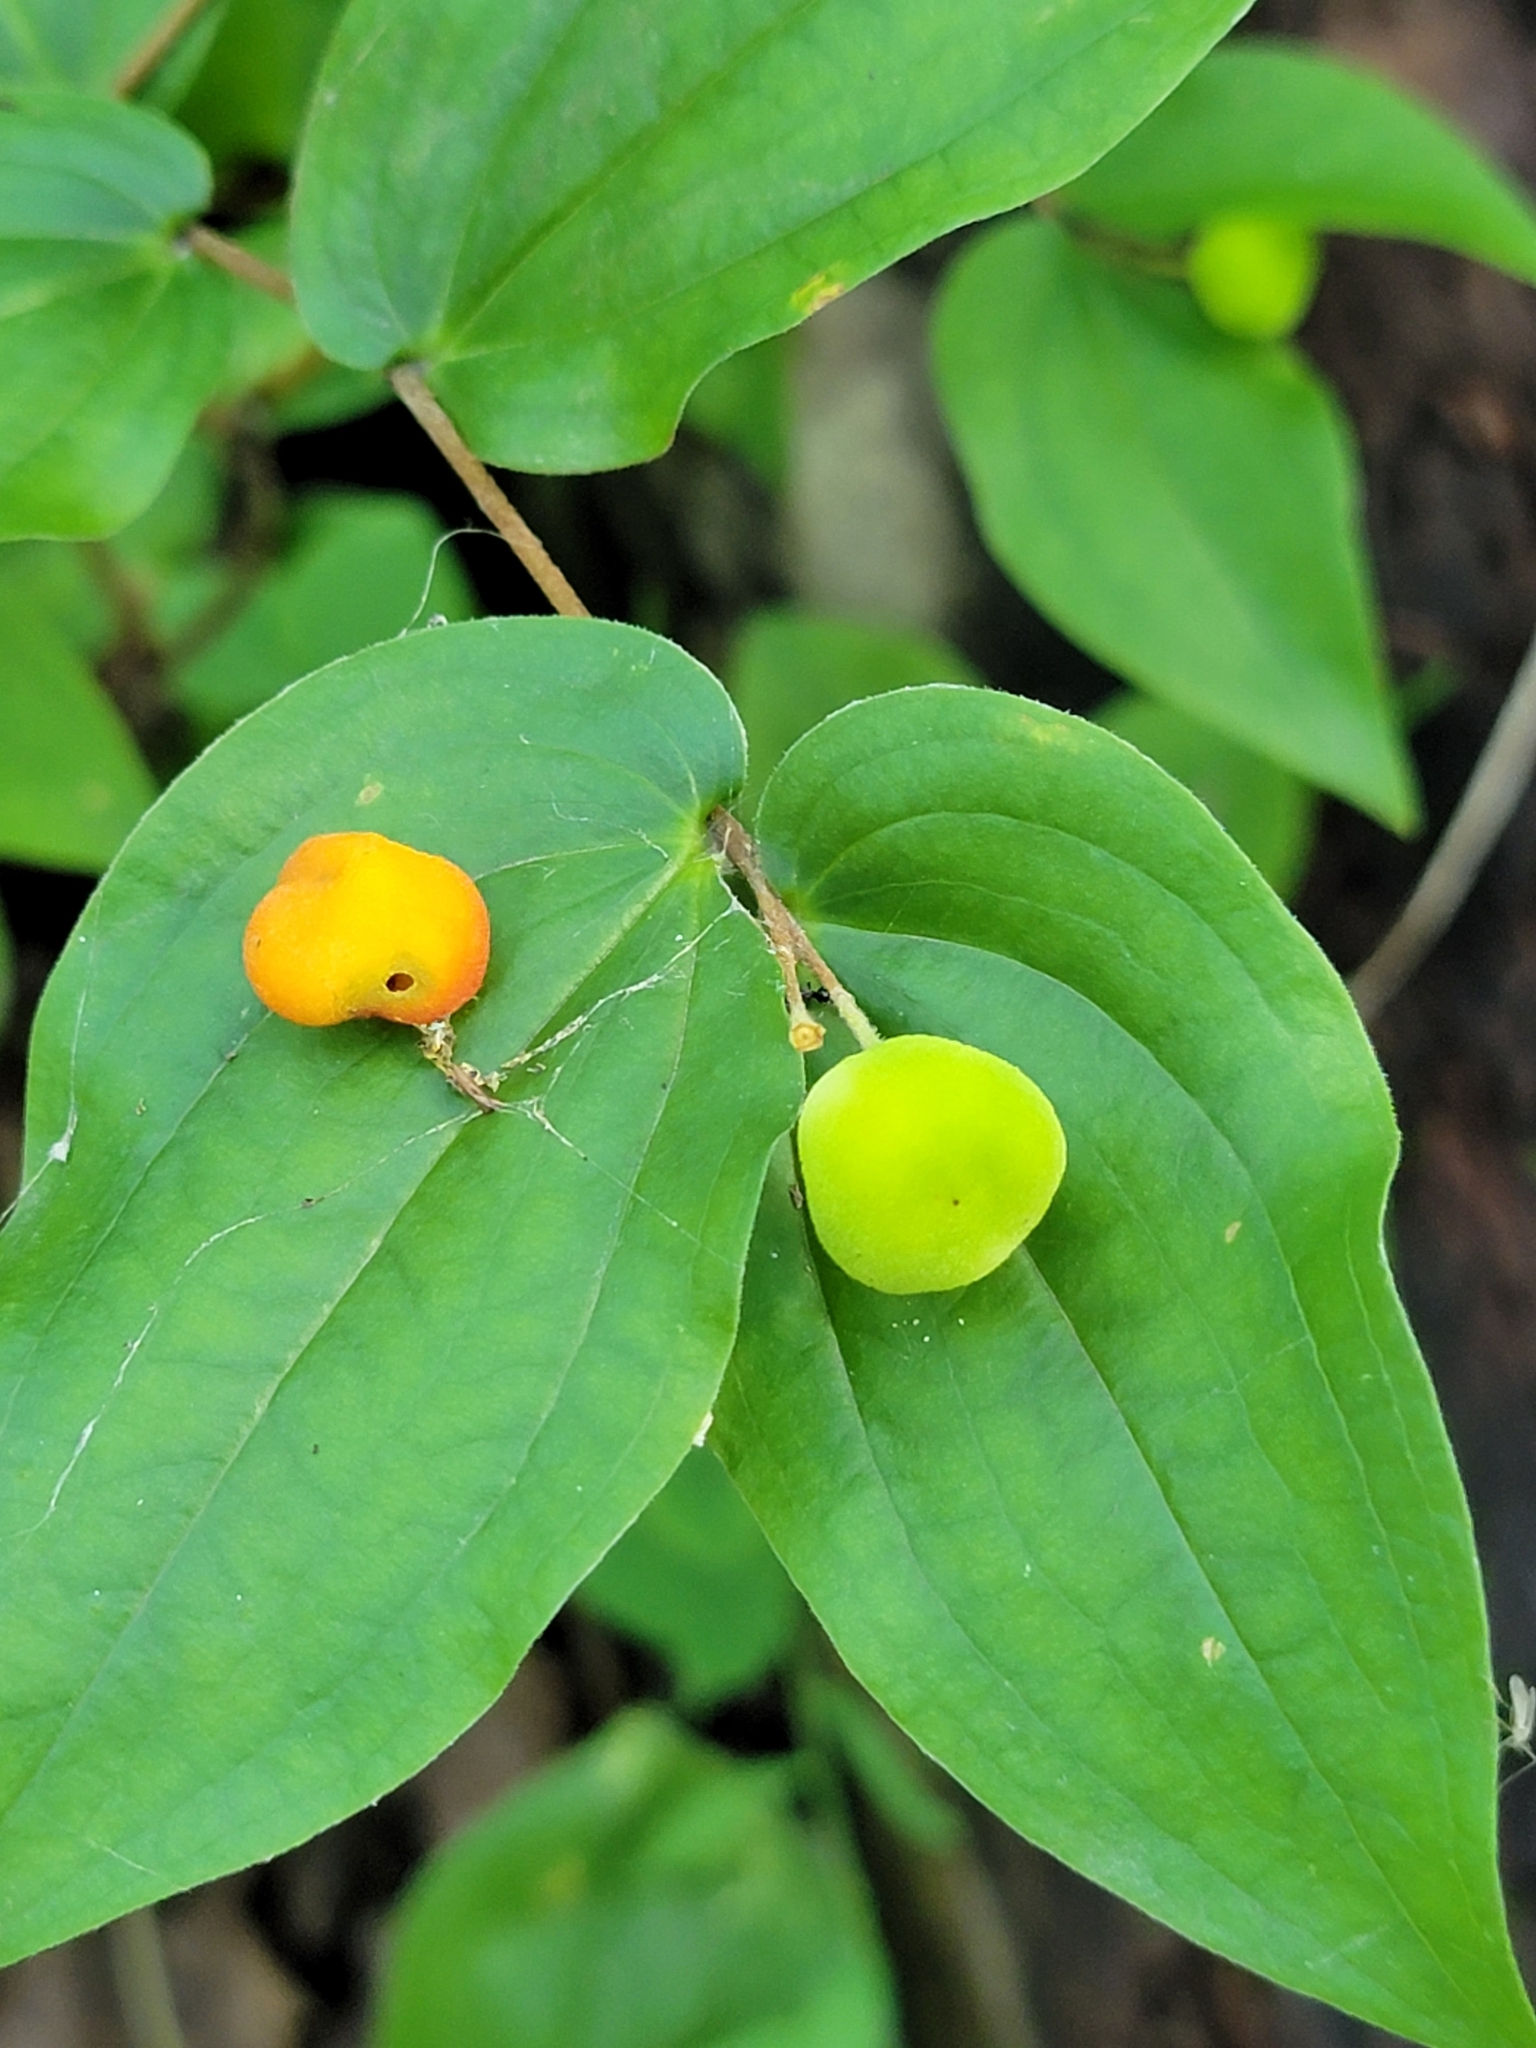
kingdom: Plantae
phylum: Tracheophyta
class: Liliopsida
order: Liliales
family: Liliaceae
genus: Prosartes
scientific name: Prosartes trachycarpa
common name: Rough-fruit fairy-bells
